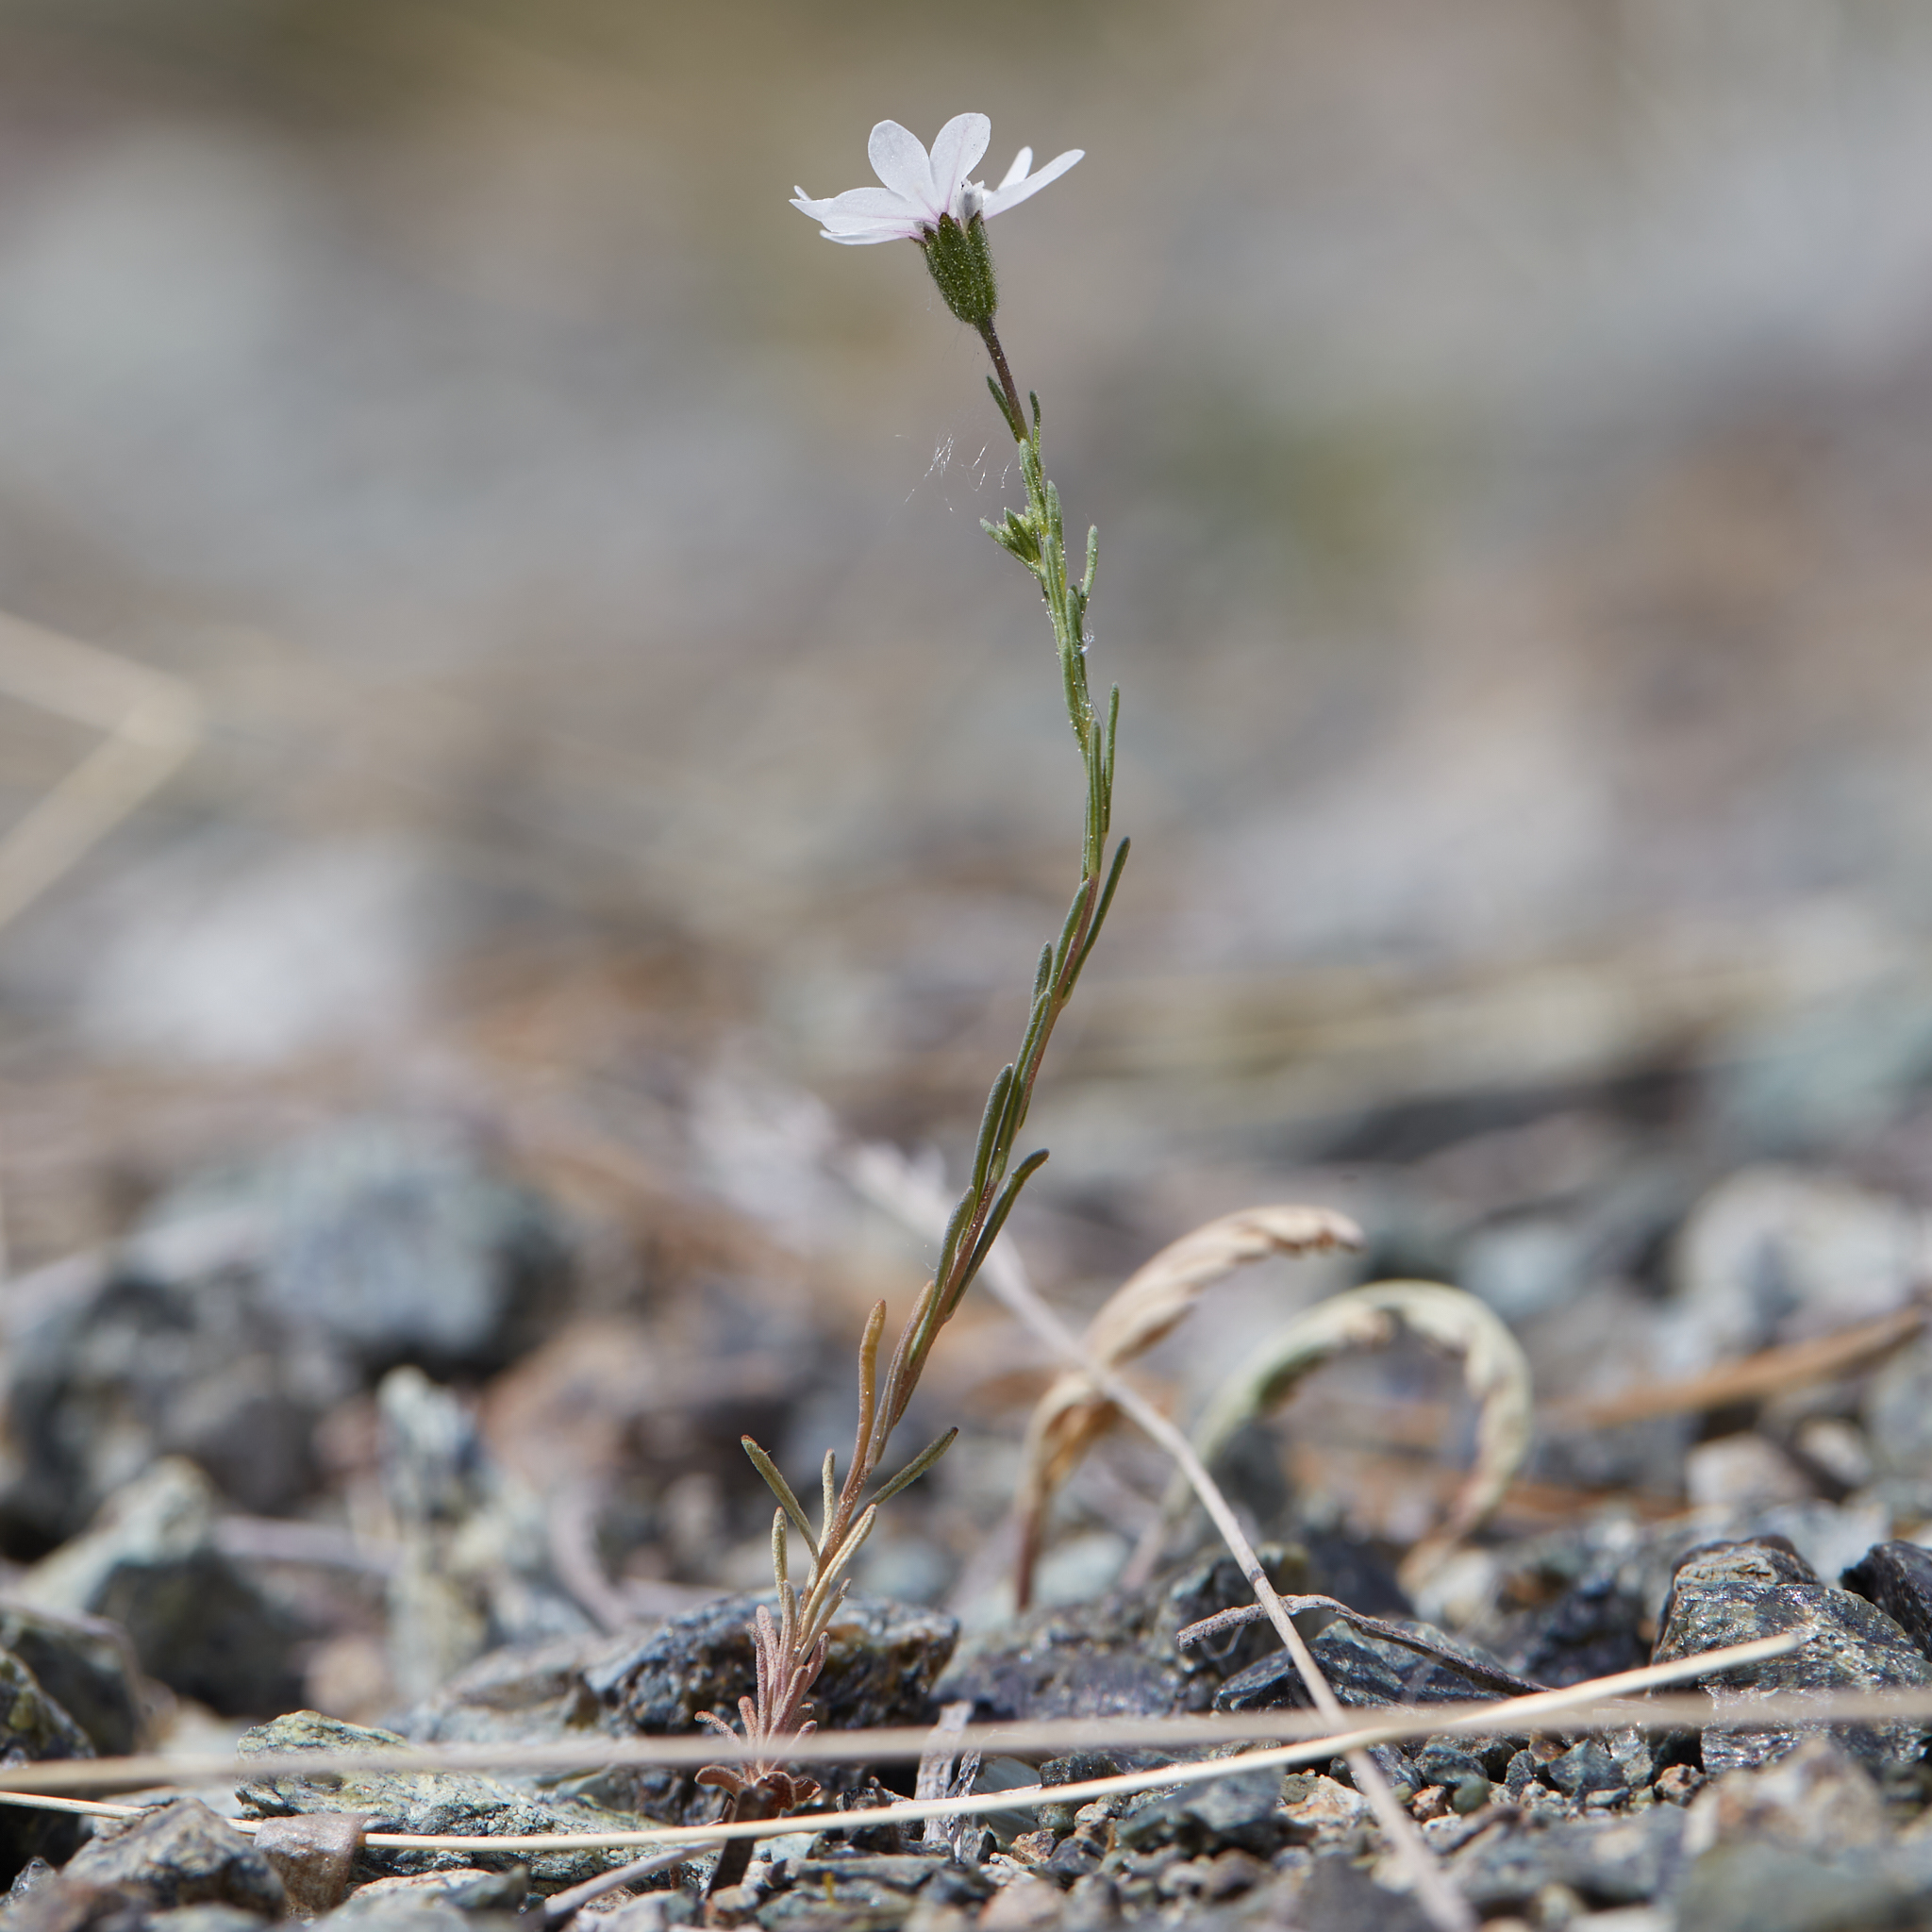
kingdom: Plantae
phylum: Tracheophyta
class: Magnoliopsida
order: Asterales
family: Asteraceae
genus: Blepharipappus
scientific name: Blepharipappus scaber
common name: Rough blepharipappus
